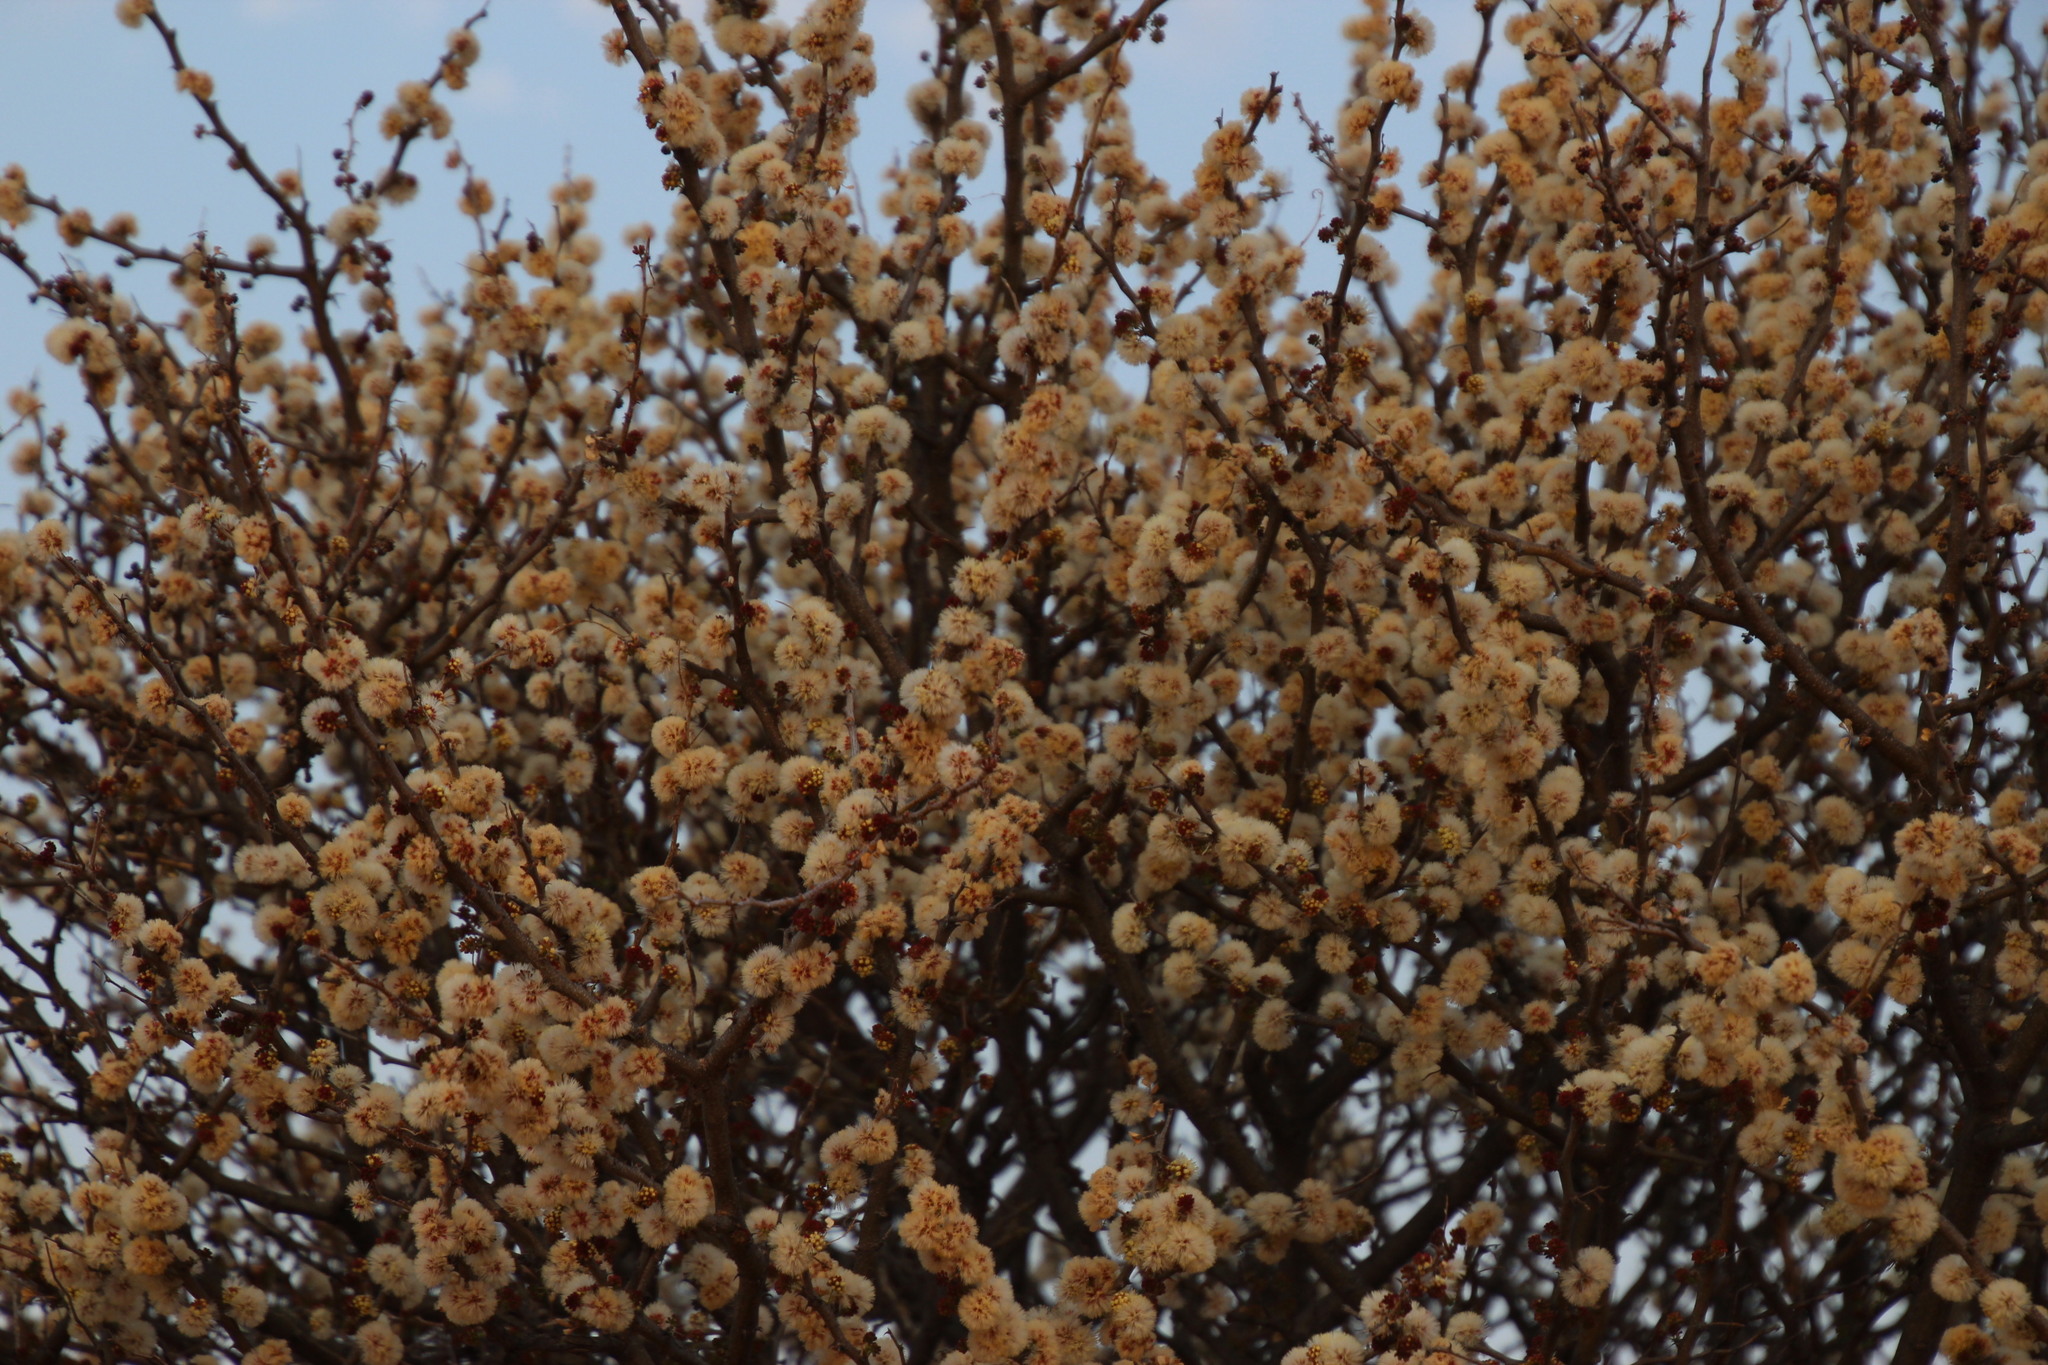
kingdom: Plantae
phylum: Tracheophyta
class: Magnoliopsida
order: Fabales
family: Fabaceae
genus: Senegalia
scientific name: Senegalia mellifera
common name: Hookthorn
